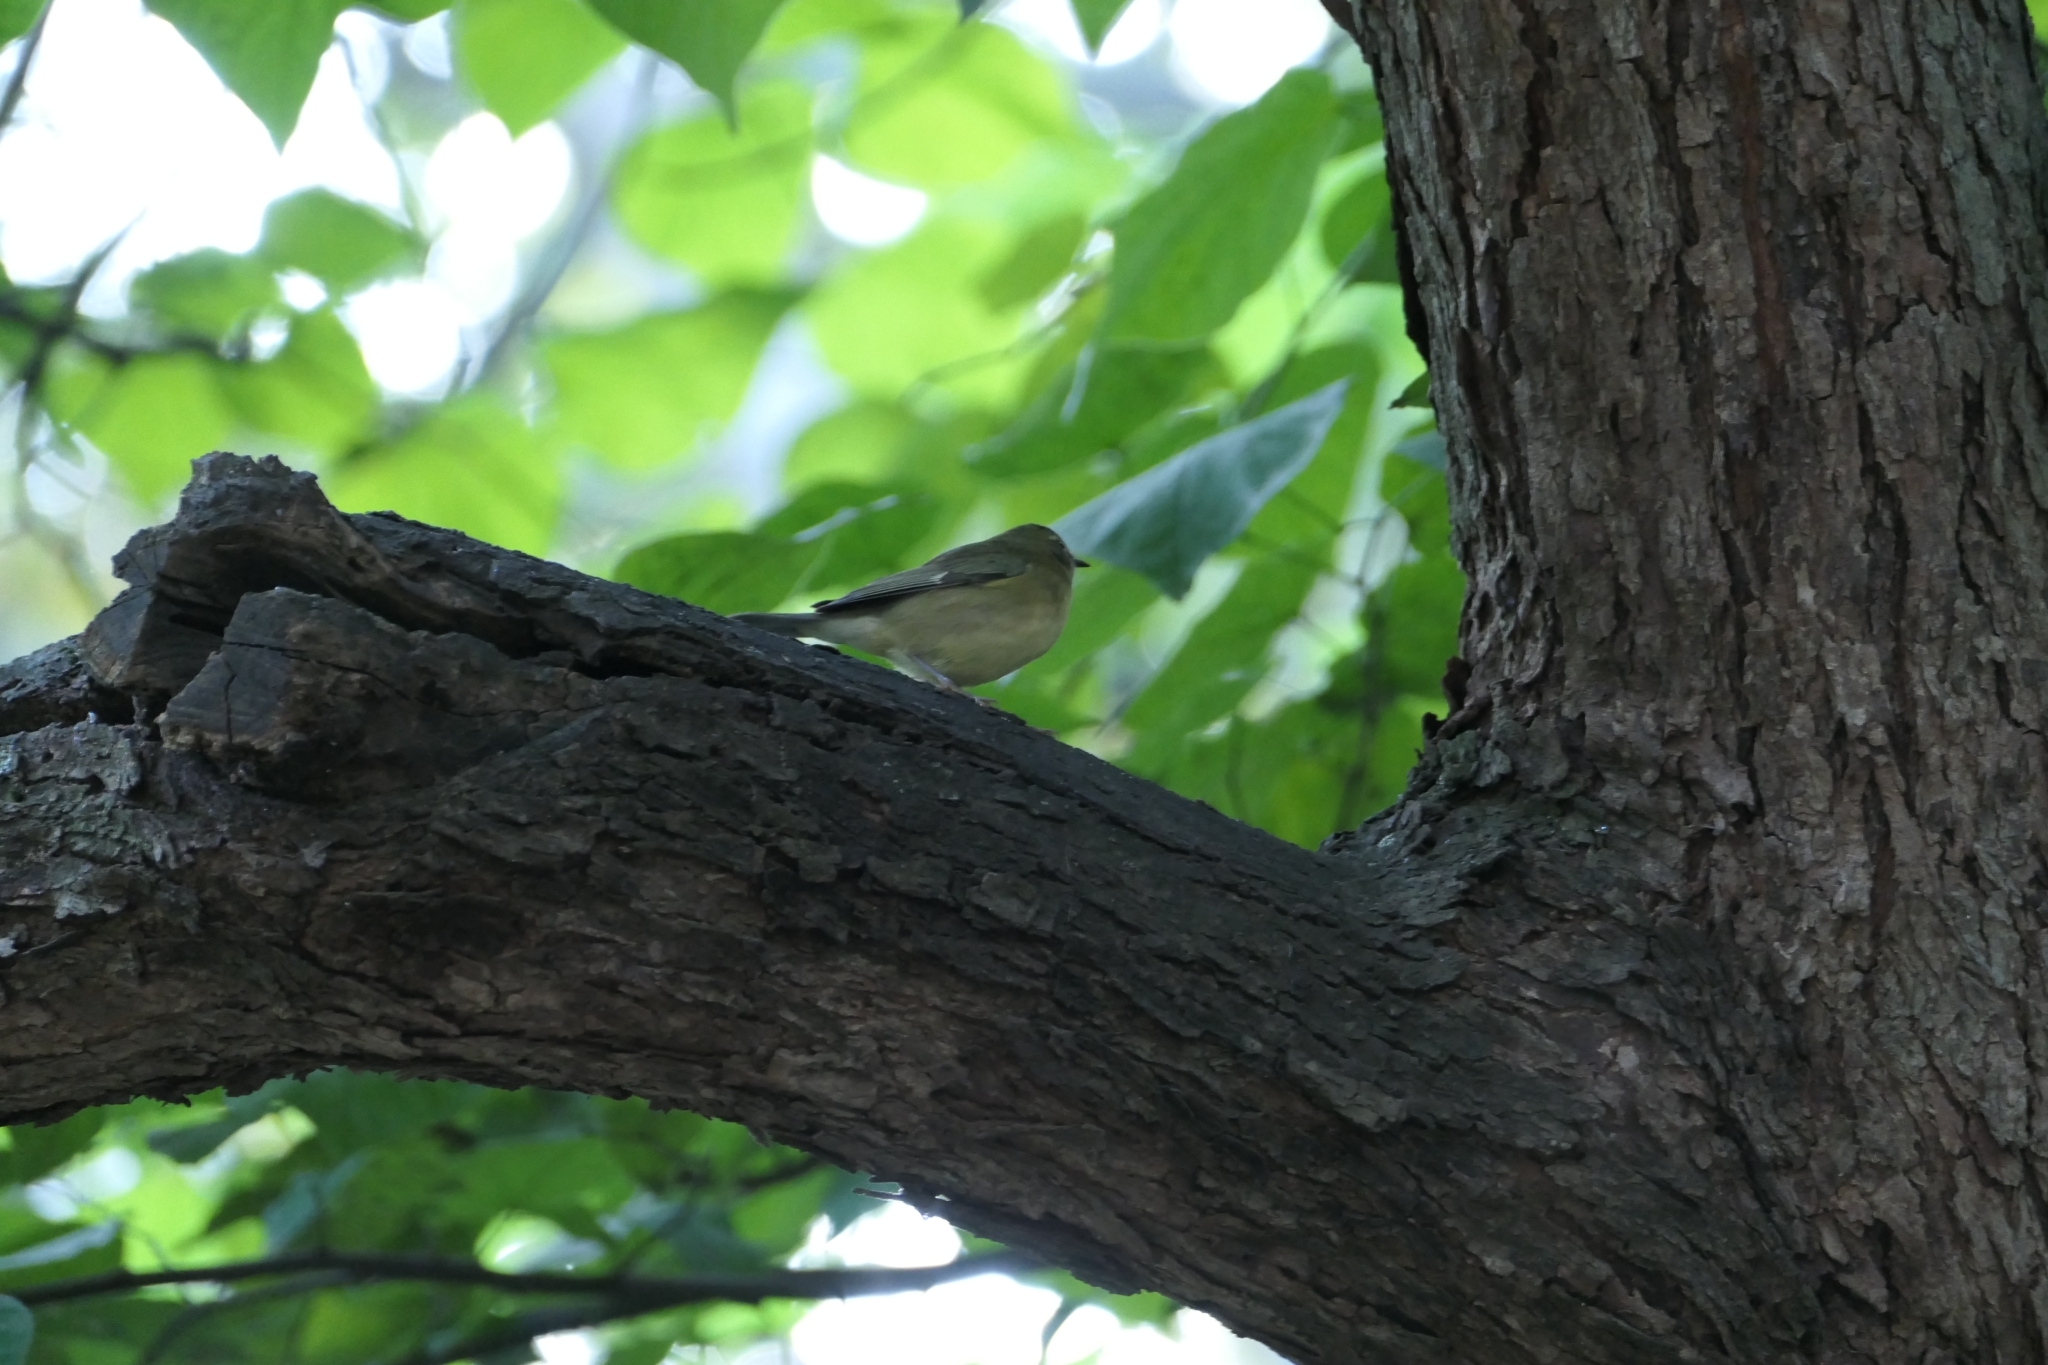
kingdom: Animalia
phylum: Chordata
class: Aves
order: Passeriformes
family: Parulidae
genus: Setophaga
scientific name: Setophaga caerulescens
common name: Black-throated blue warbler
